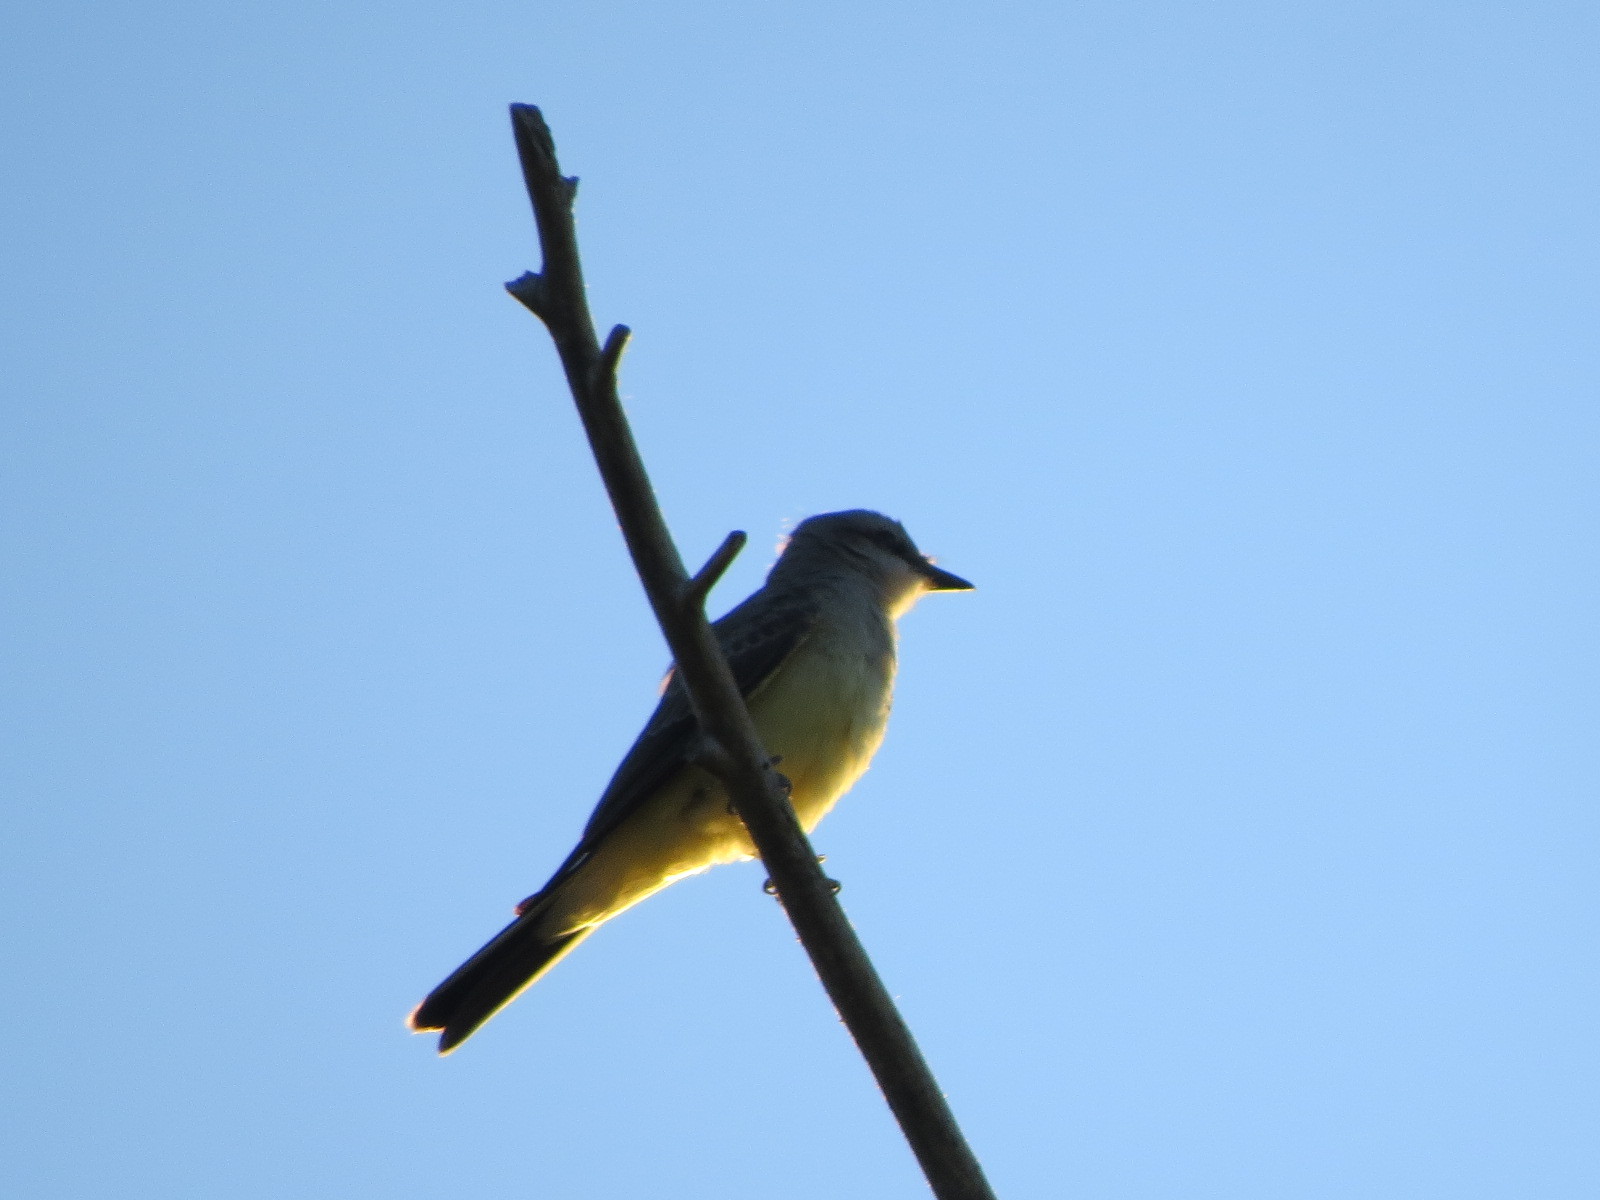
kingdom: Animalia
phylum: Chordata
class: Aves
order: Passeriformes
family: Tyrannidae
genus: Tyrannus
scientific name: Tyrannus verticalis
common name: Western kingbird
